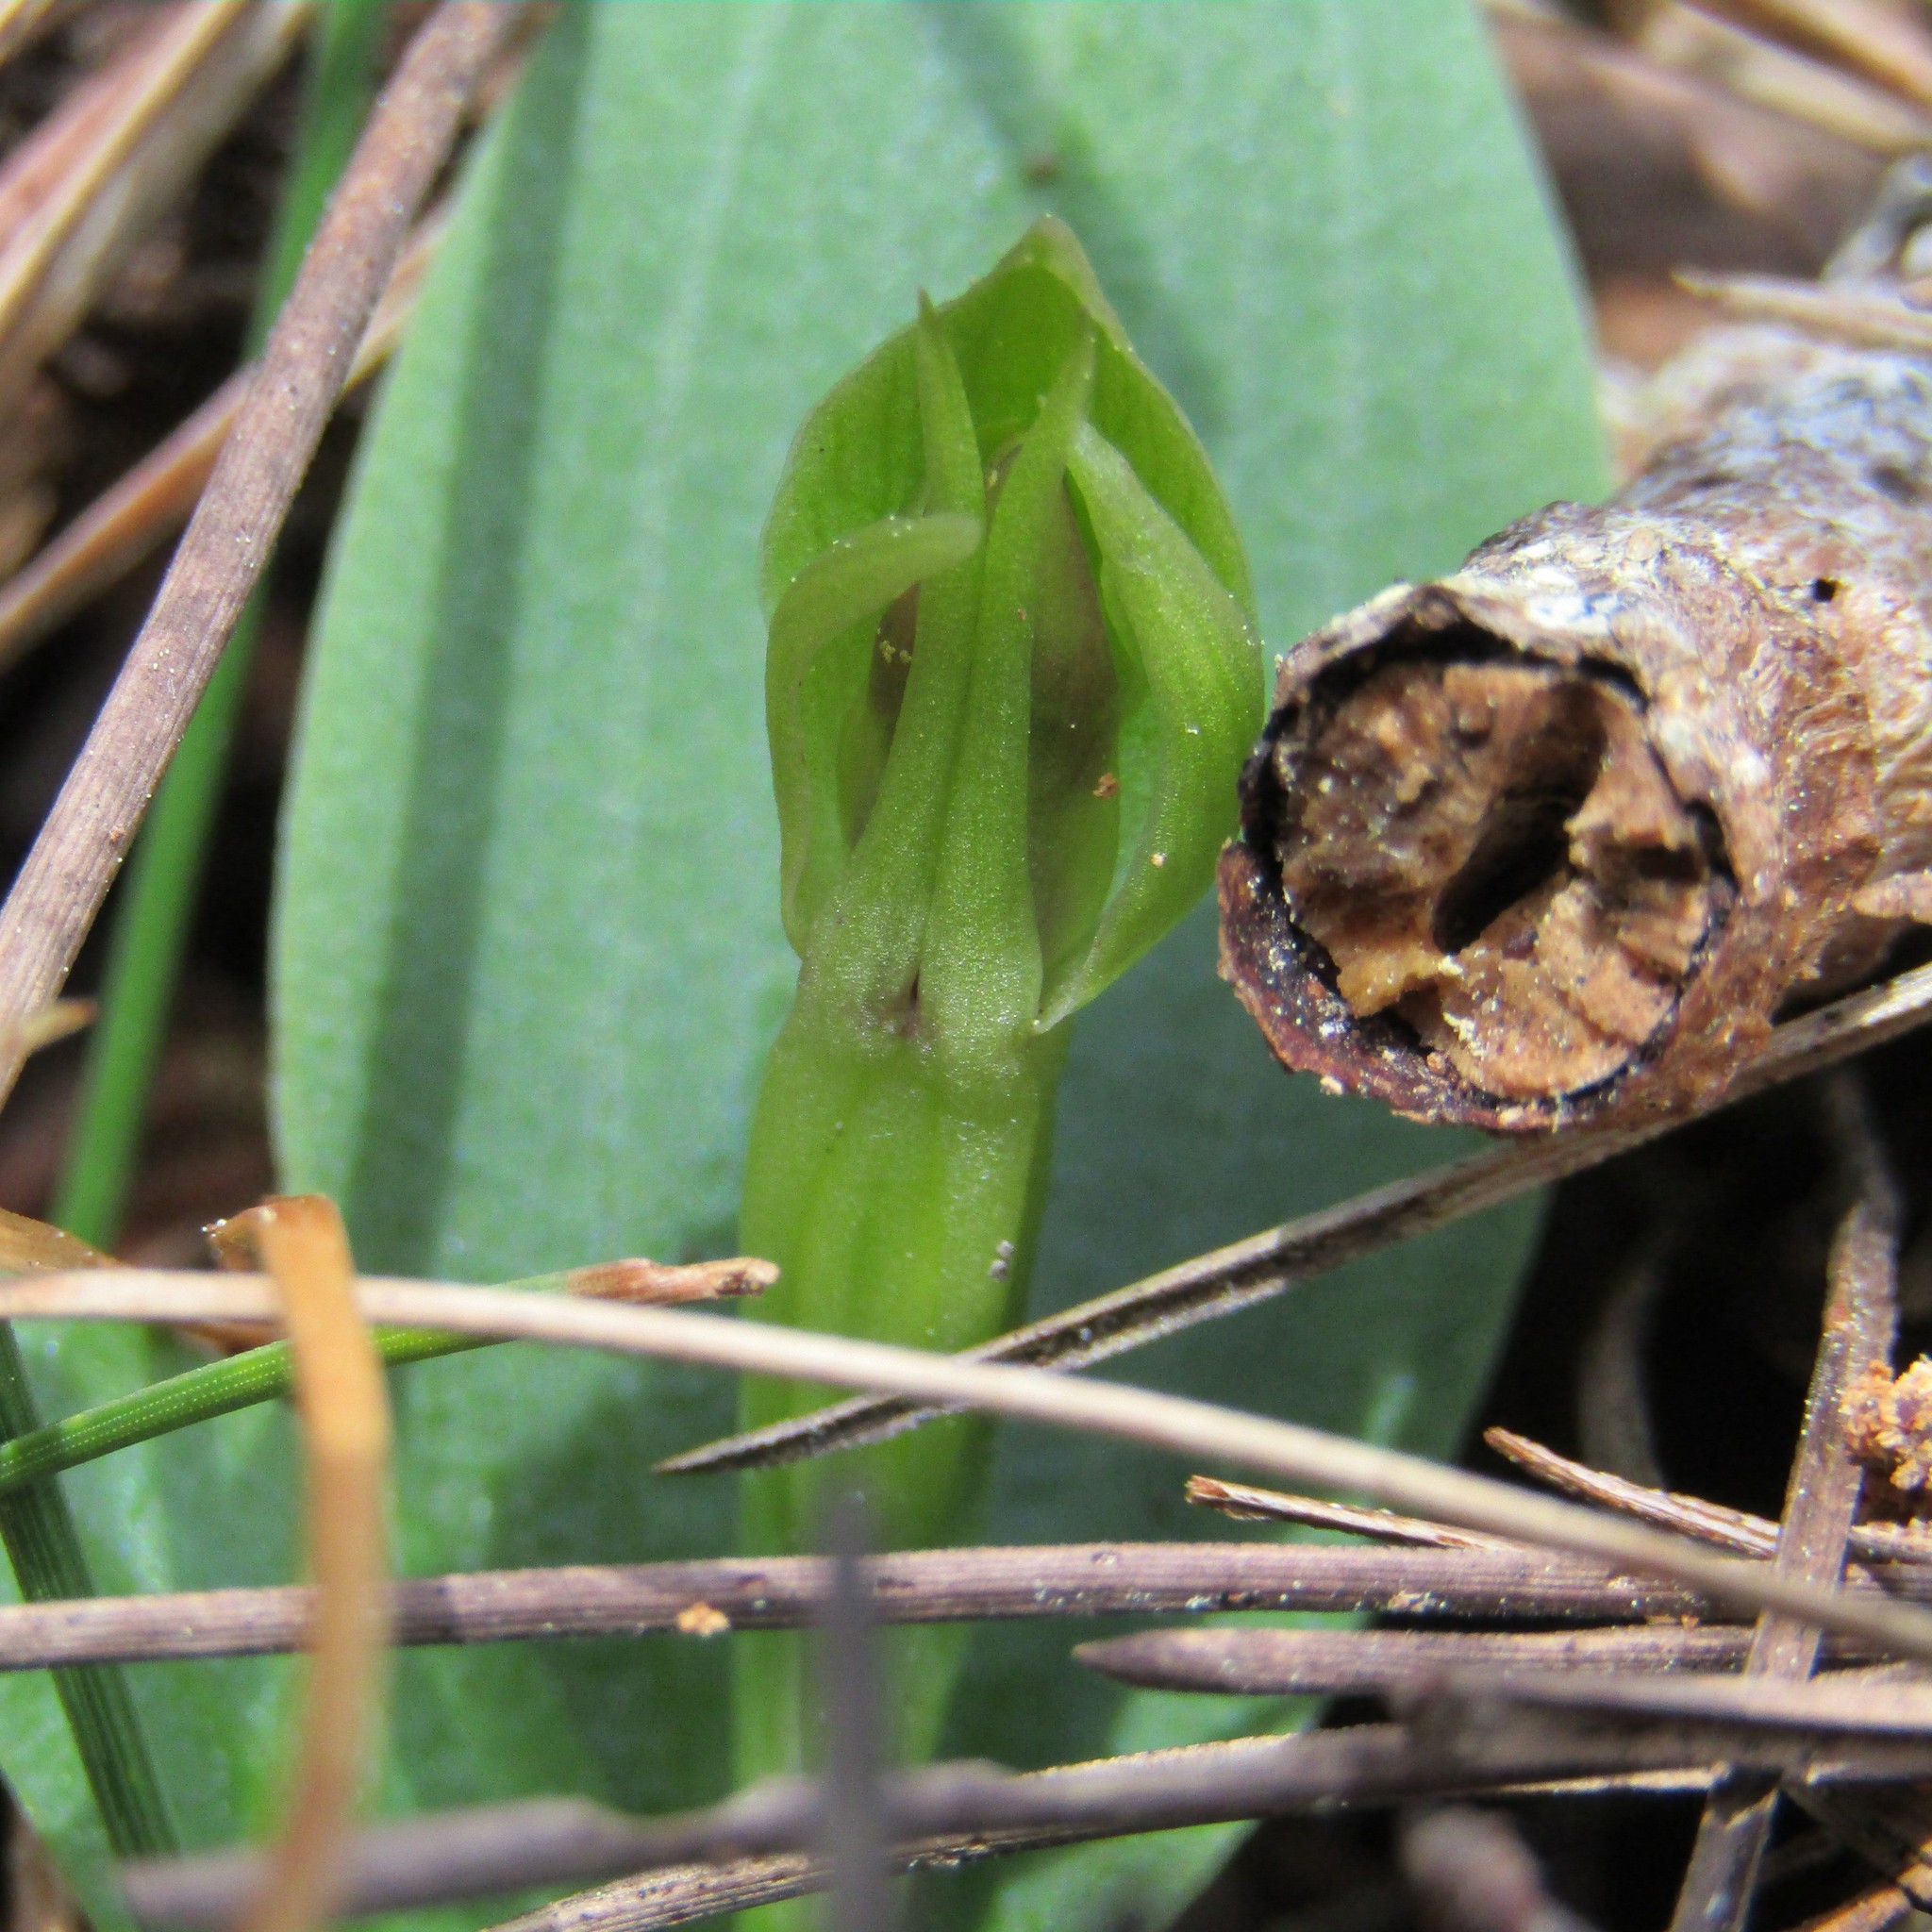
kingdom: Plantae
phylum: Tracheophyta
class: Liliopsida
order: Asparagales
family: Orchidaceae
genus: Chiloglottis
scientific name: Chiloglottis cornuta
